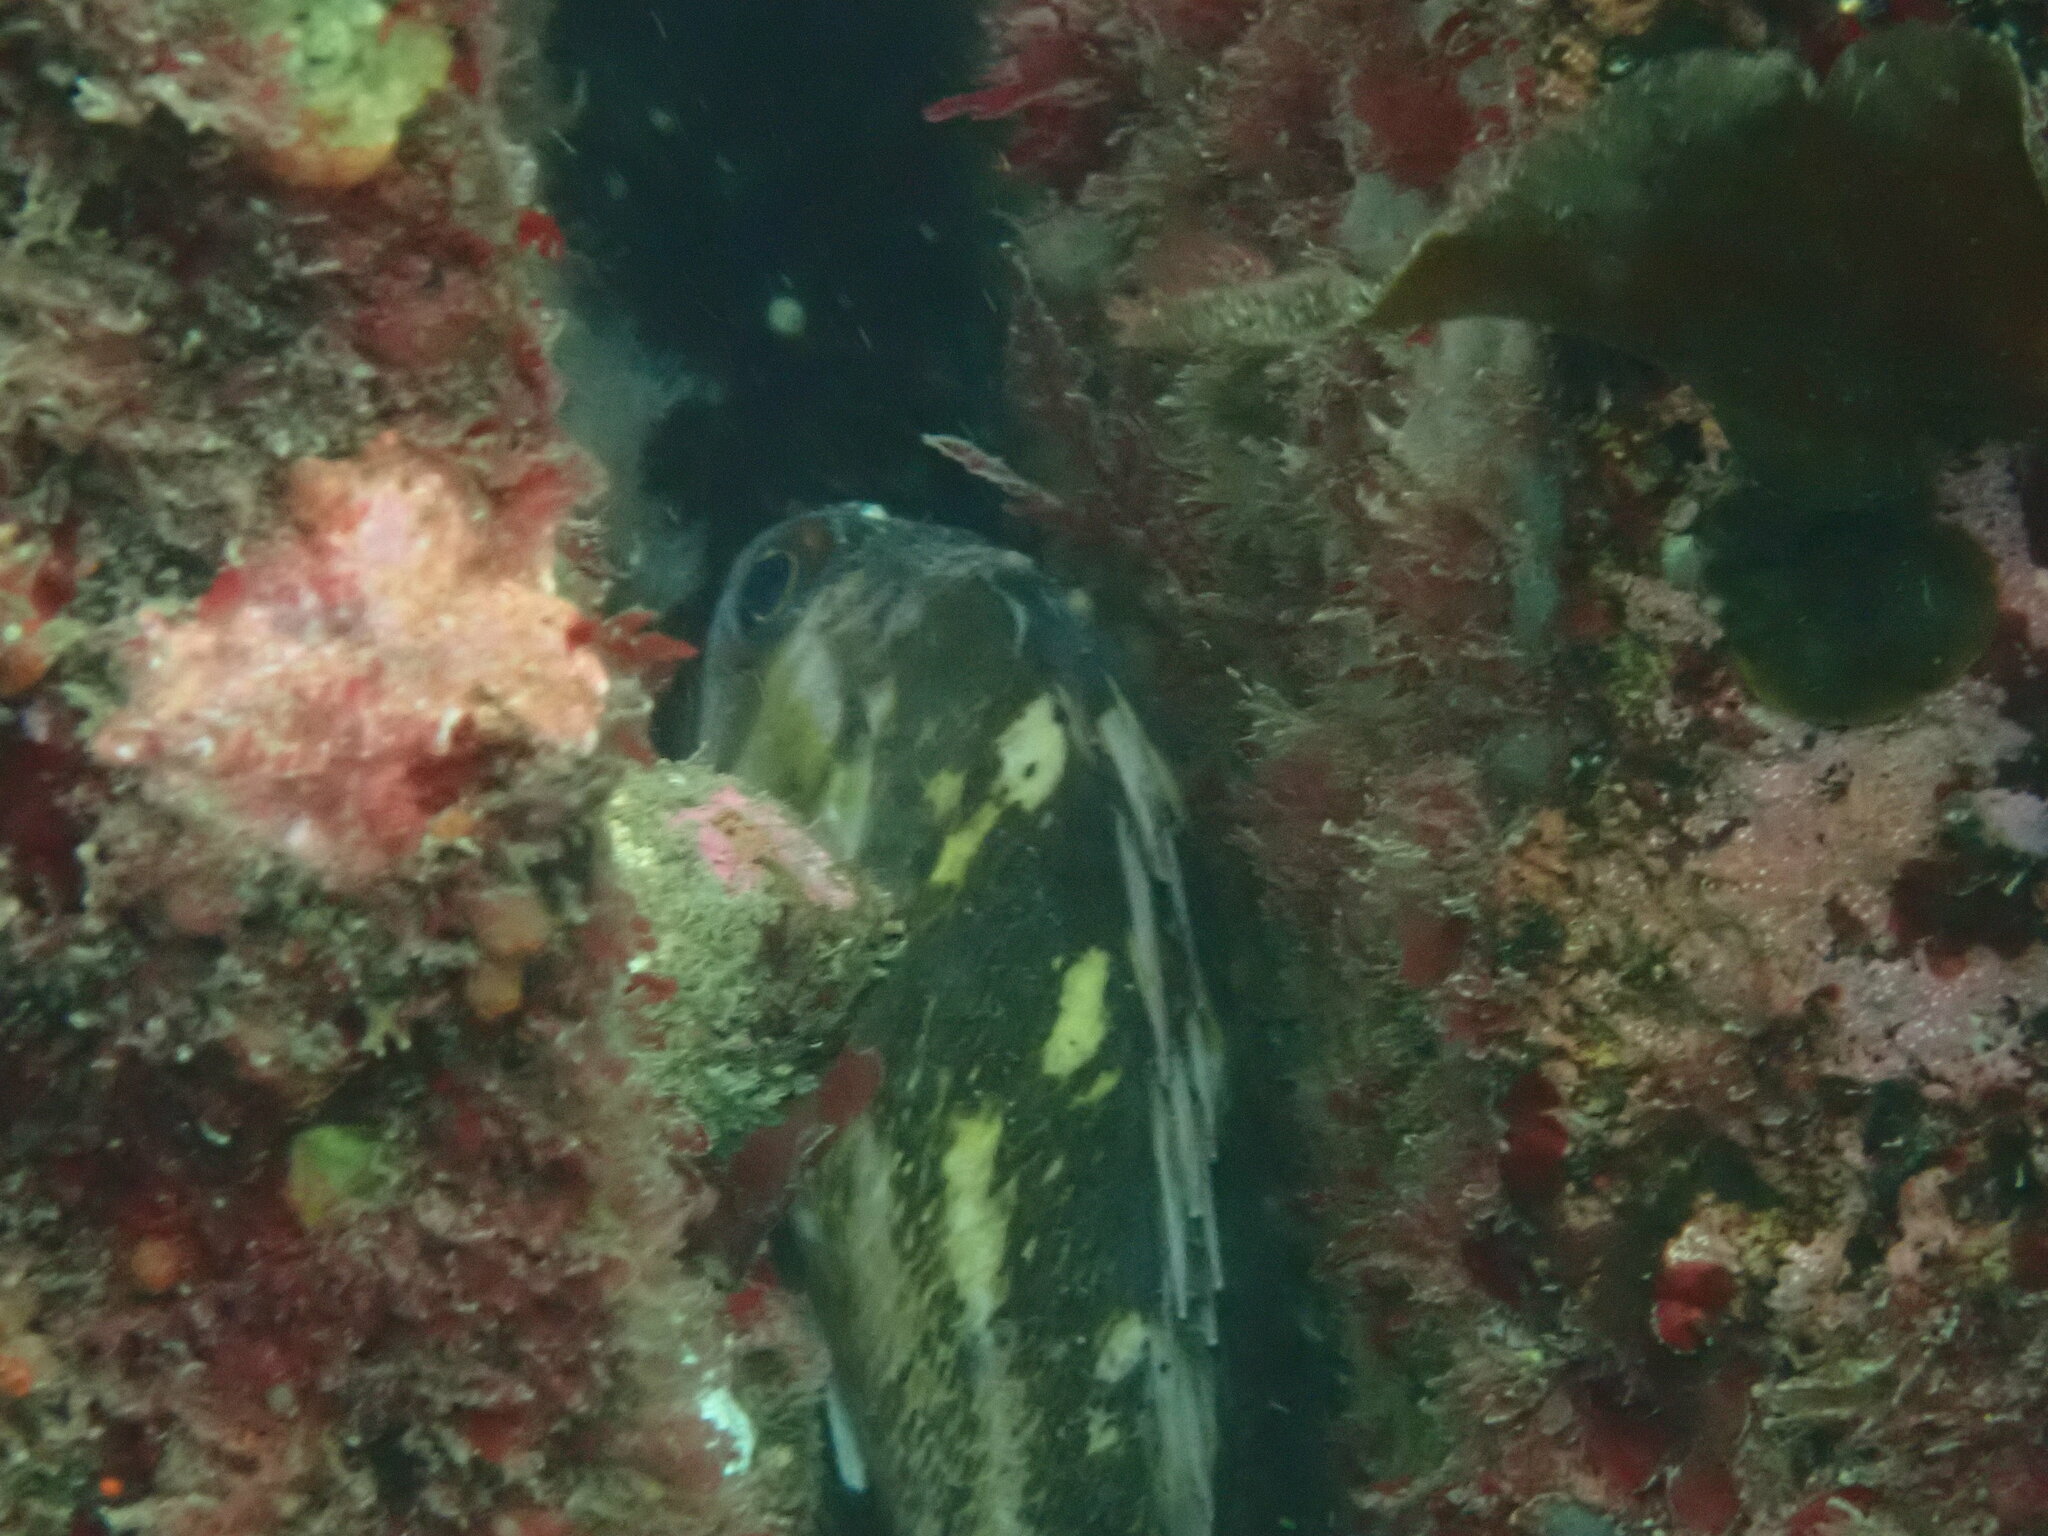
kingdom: Animalia
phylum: Chordata
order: Scorpaeniformes
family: Sebastidae
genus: Sebastes
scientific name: Sebastes caurinus
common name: Copper rockfish
